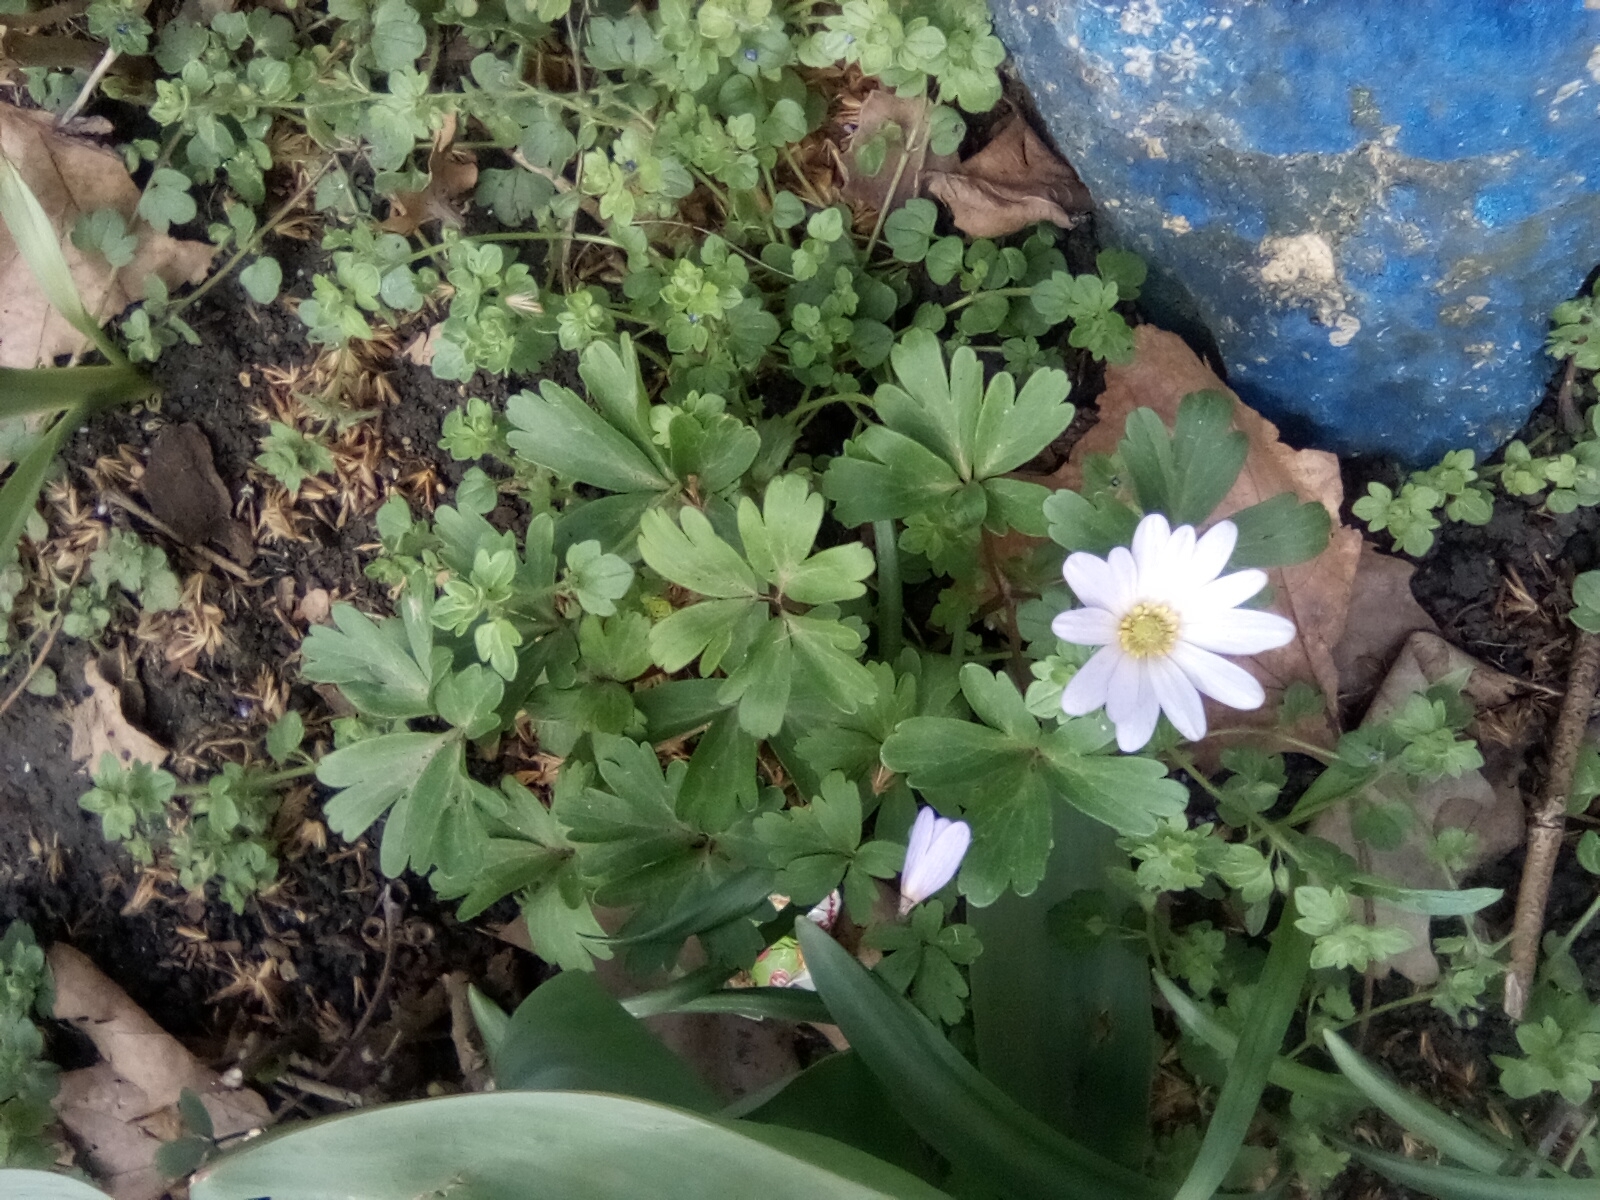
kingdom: Plantae
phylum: Tracheophyta
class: Magnoliopsida
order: Ranunculales
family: Ranunculaceae
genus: Anemone
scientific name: Anemone blanda
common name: Balkan anemone
